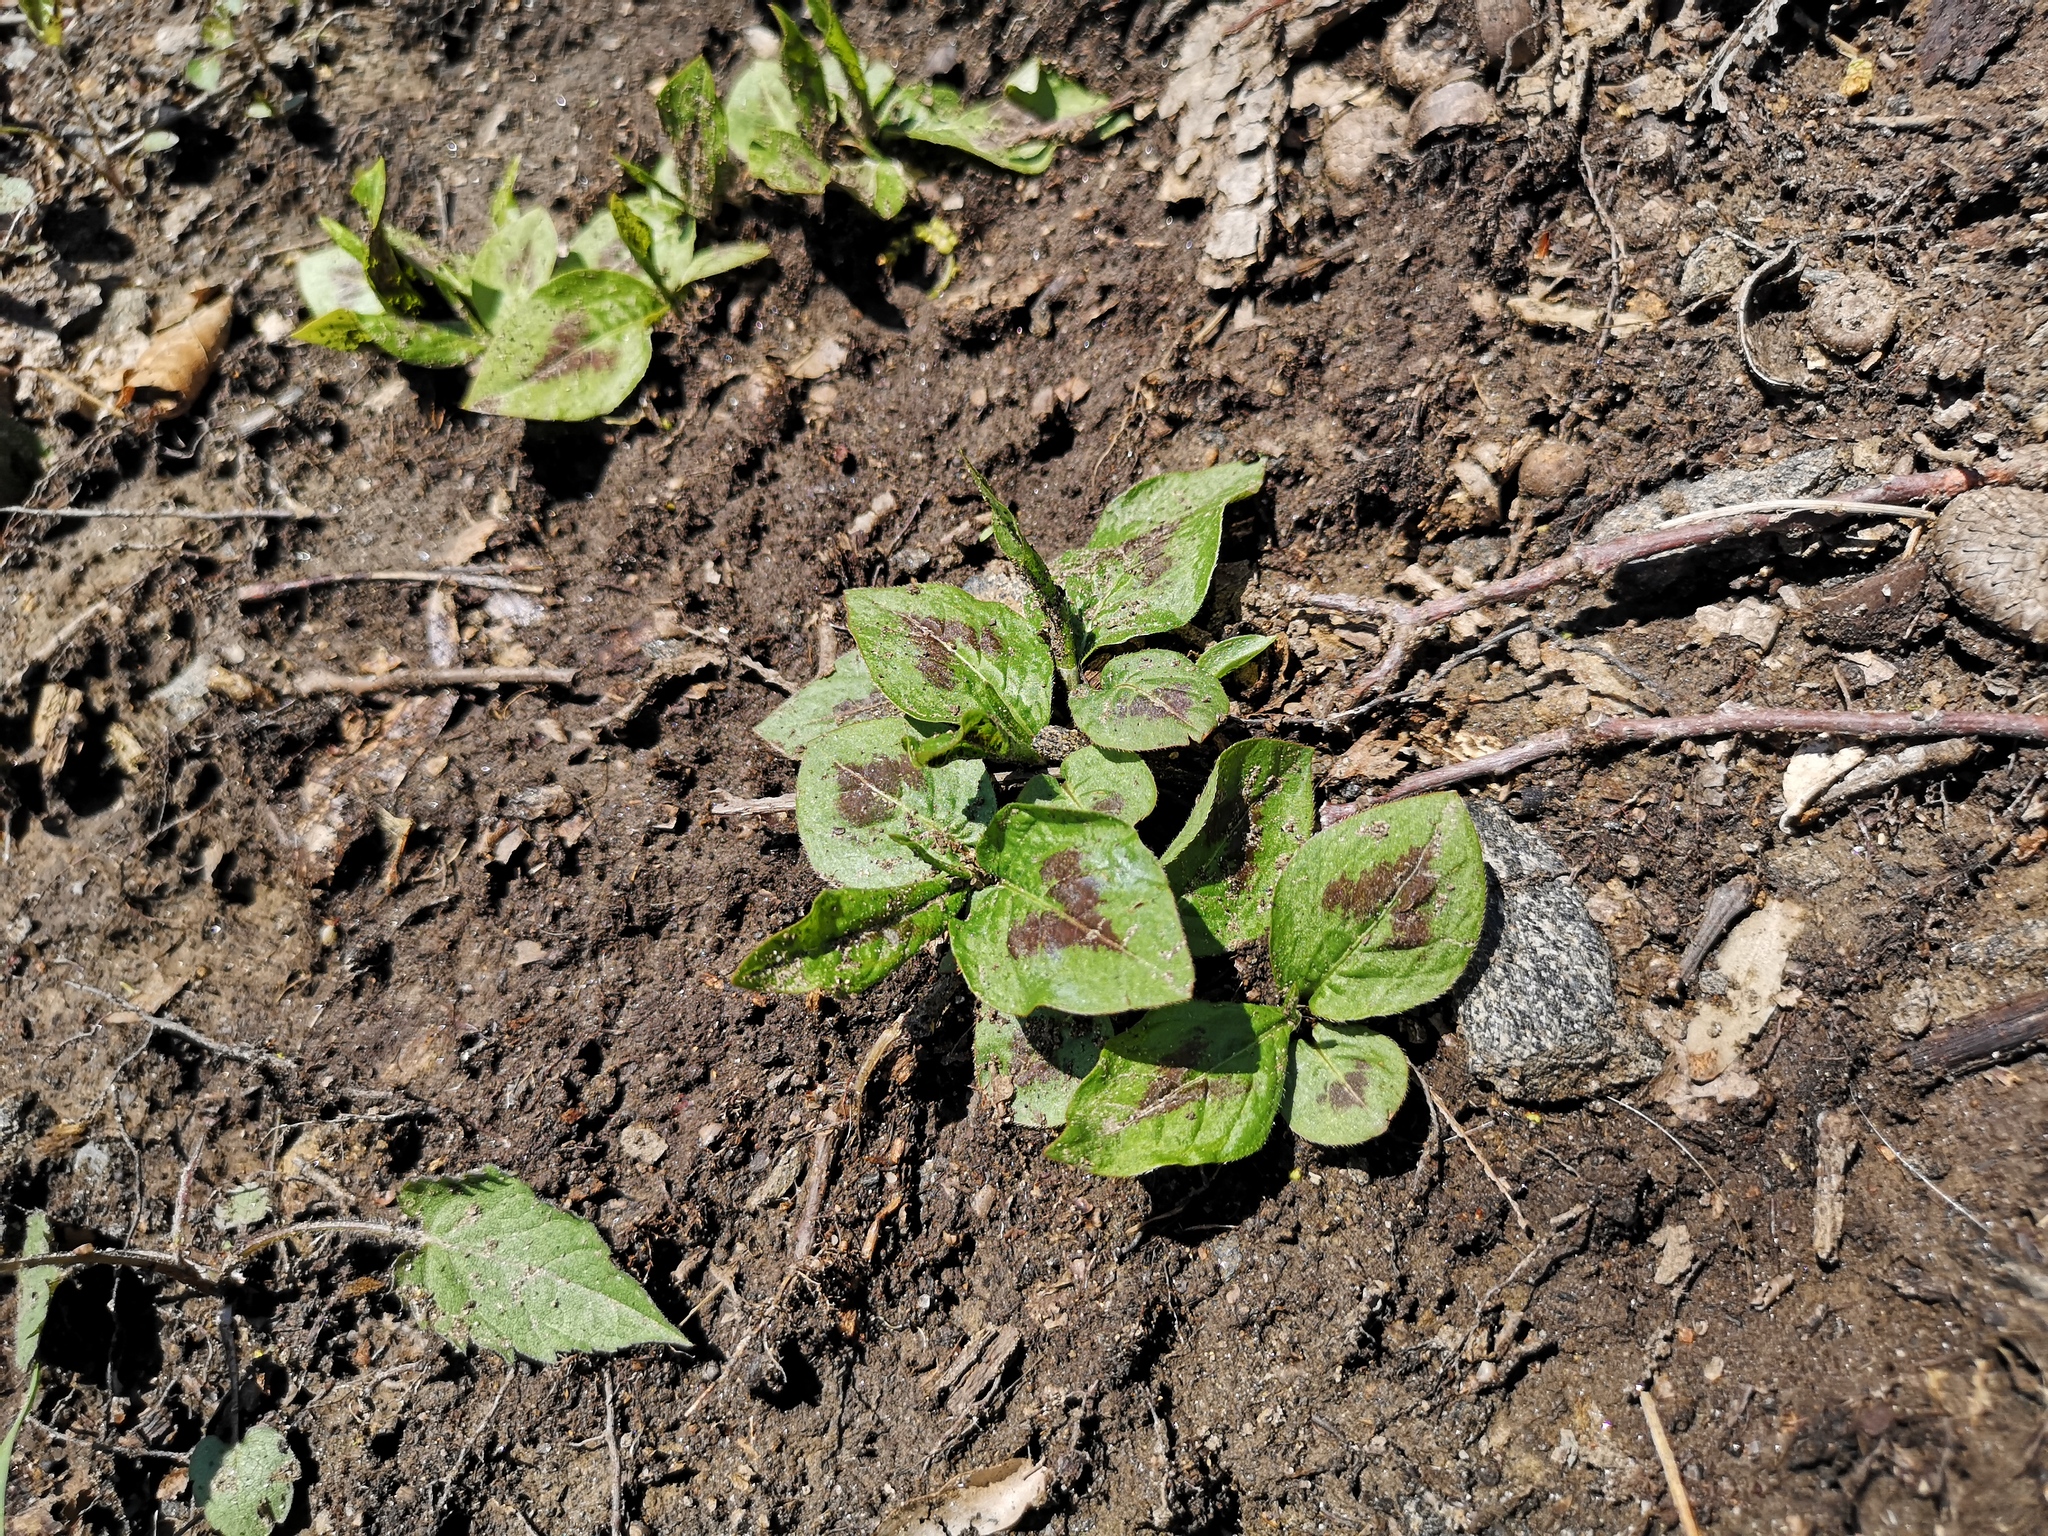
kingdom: Plantae
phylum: Tracheophyta
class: Magnoliopsida
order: Caryophyllales
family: Polygonaceae
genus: Persicaria
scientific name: Persicaria virginiana
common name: Jumpseed
